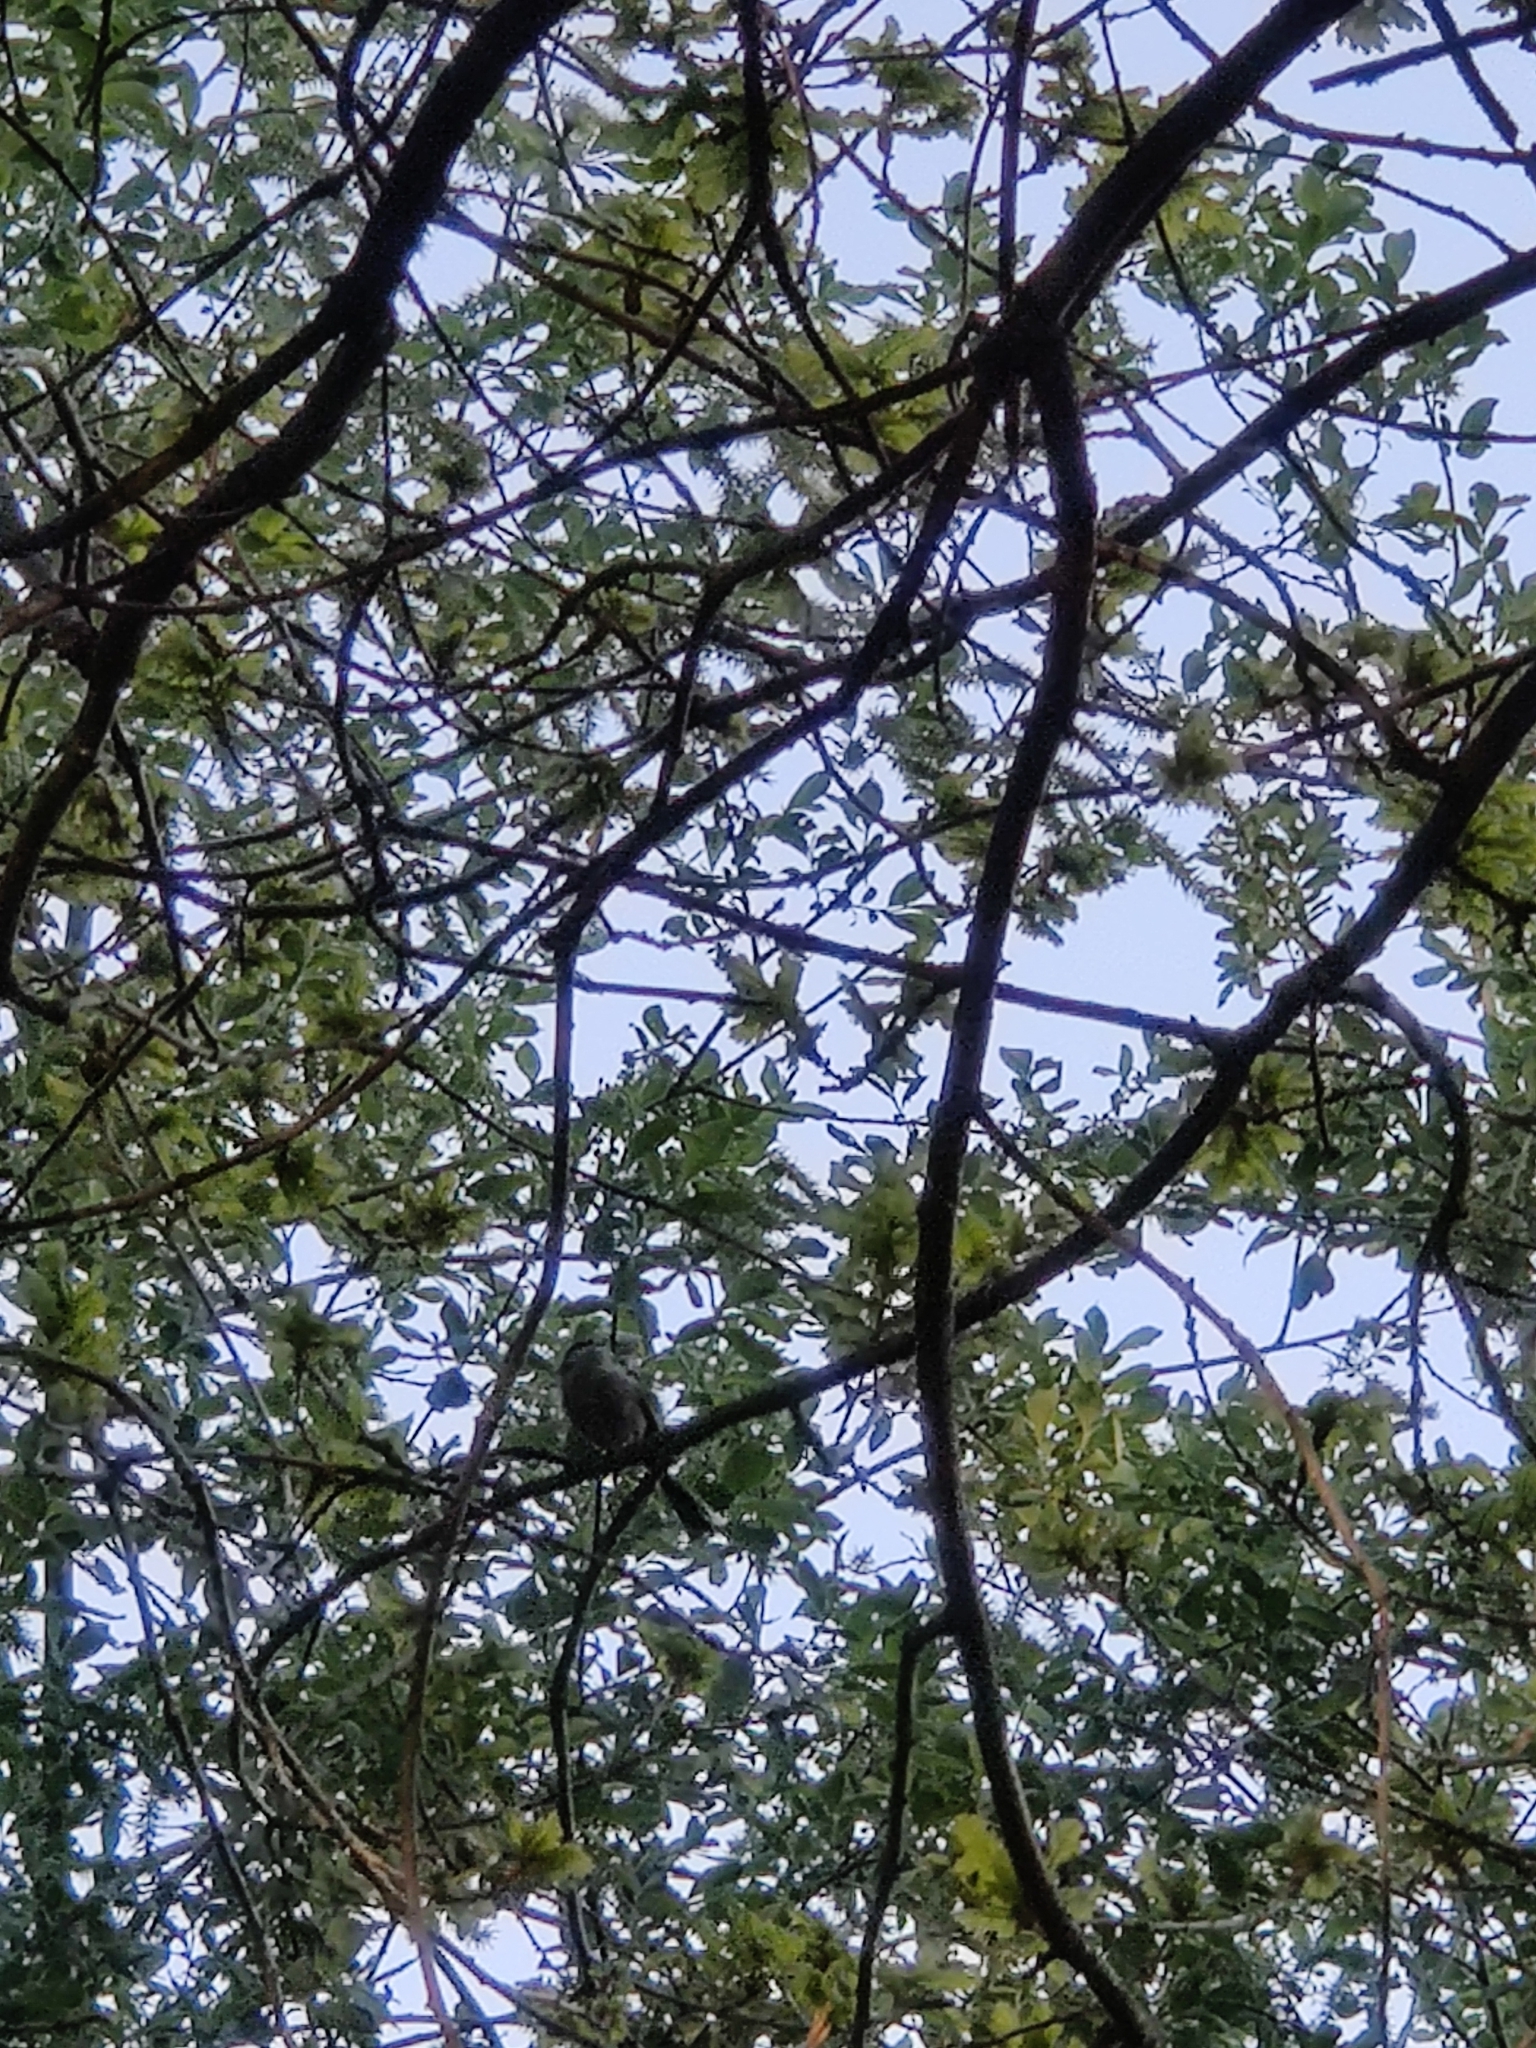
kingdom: Animalia
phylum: Chordata
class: Aves
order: Passeriformes
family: Aegithalidae
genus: Aegithalos
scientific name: Aegithalos caudatus
